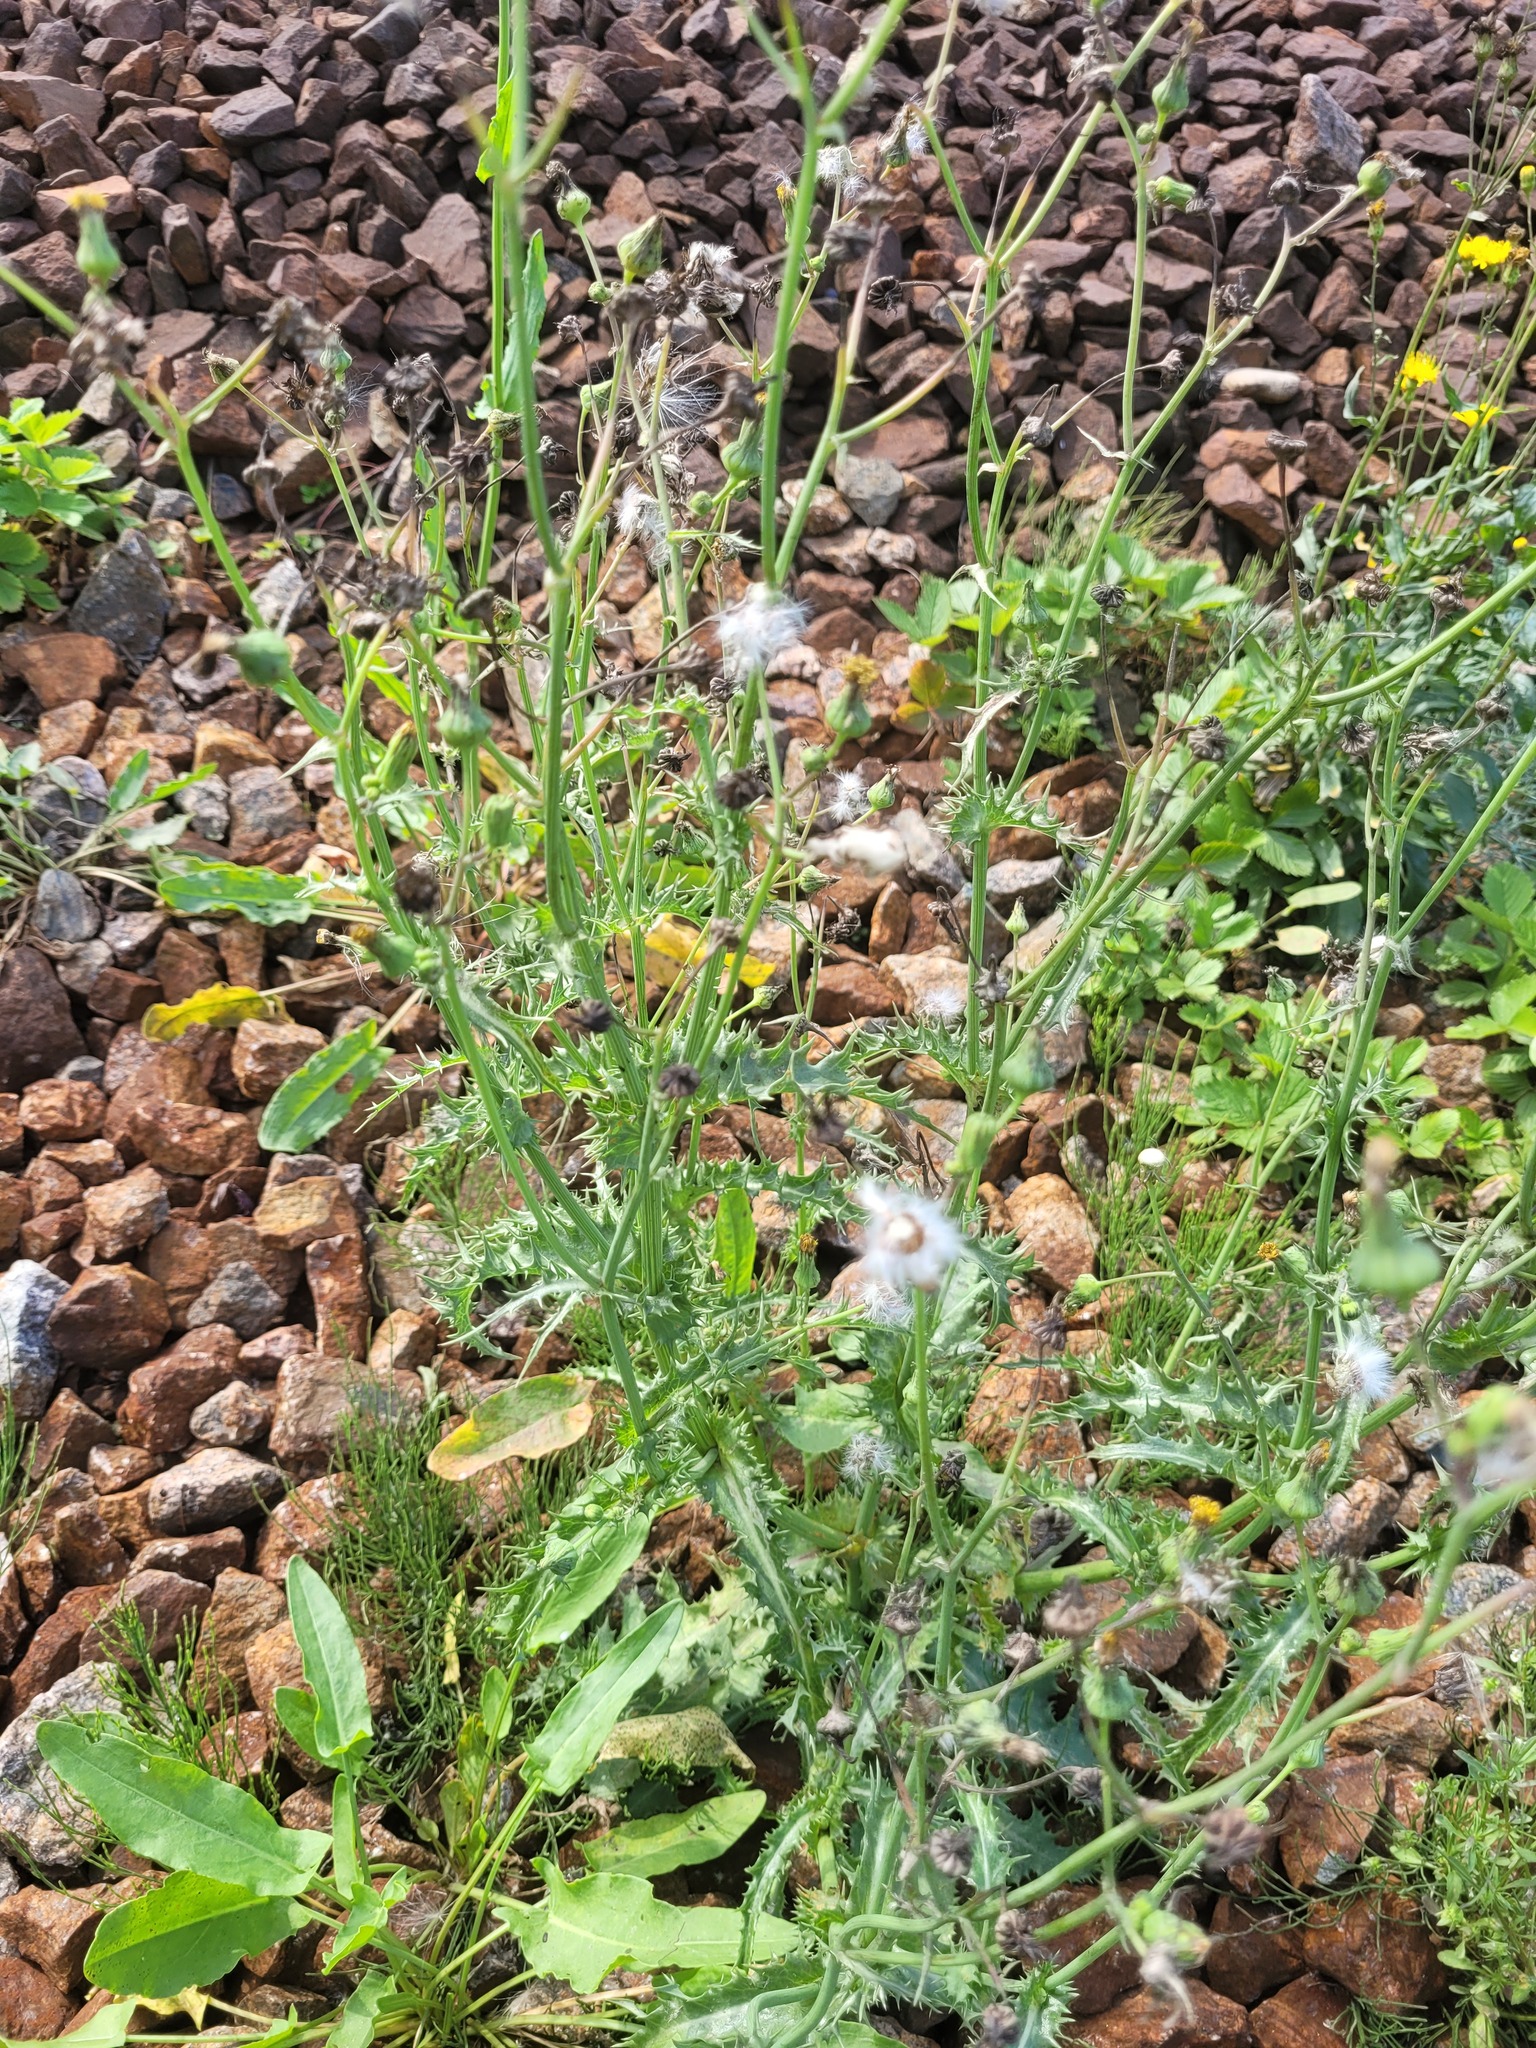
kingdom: Plantae
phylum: Tracheophyta
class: Magnoliopsida
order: Asterales
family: Asteraceae
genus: Sonchus
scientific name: Sonchus asper
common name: Prickly sow-thistle
